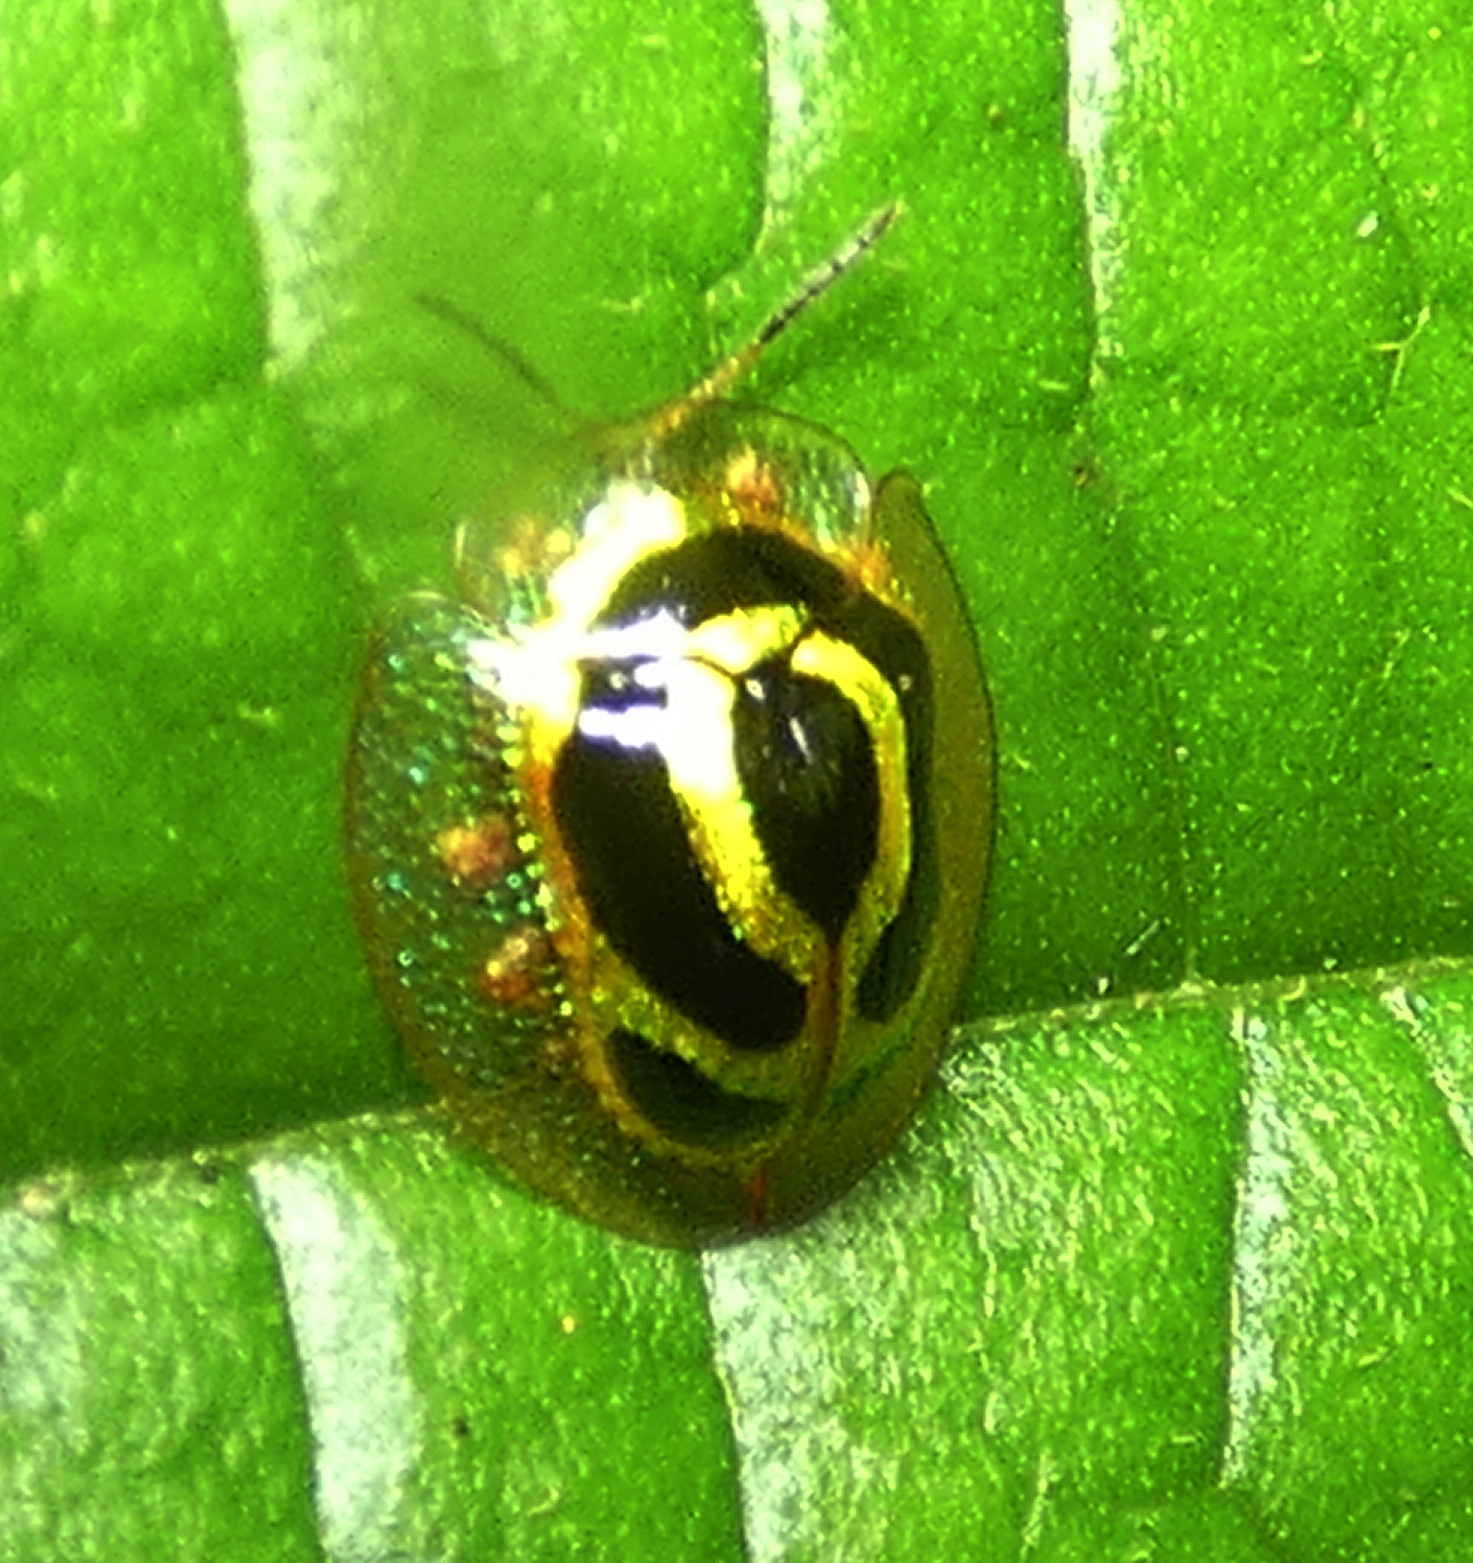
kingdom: Animalia
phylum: Arthropoda
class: Insecta
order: Coleoptera
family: Chrysomelidae
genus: Coptocycla
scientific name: Coptocycla arcuata
